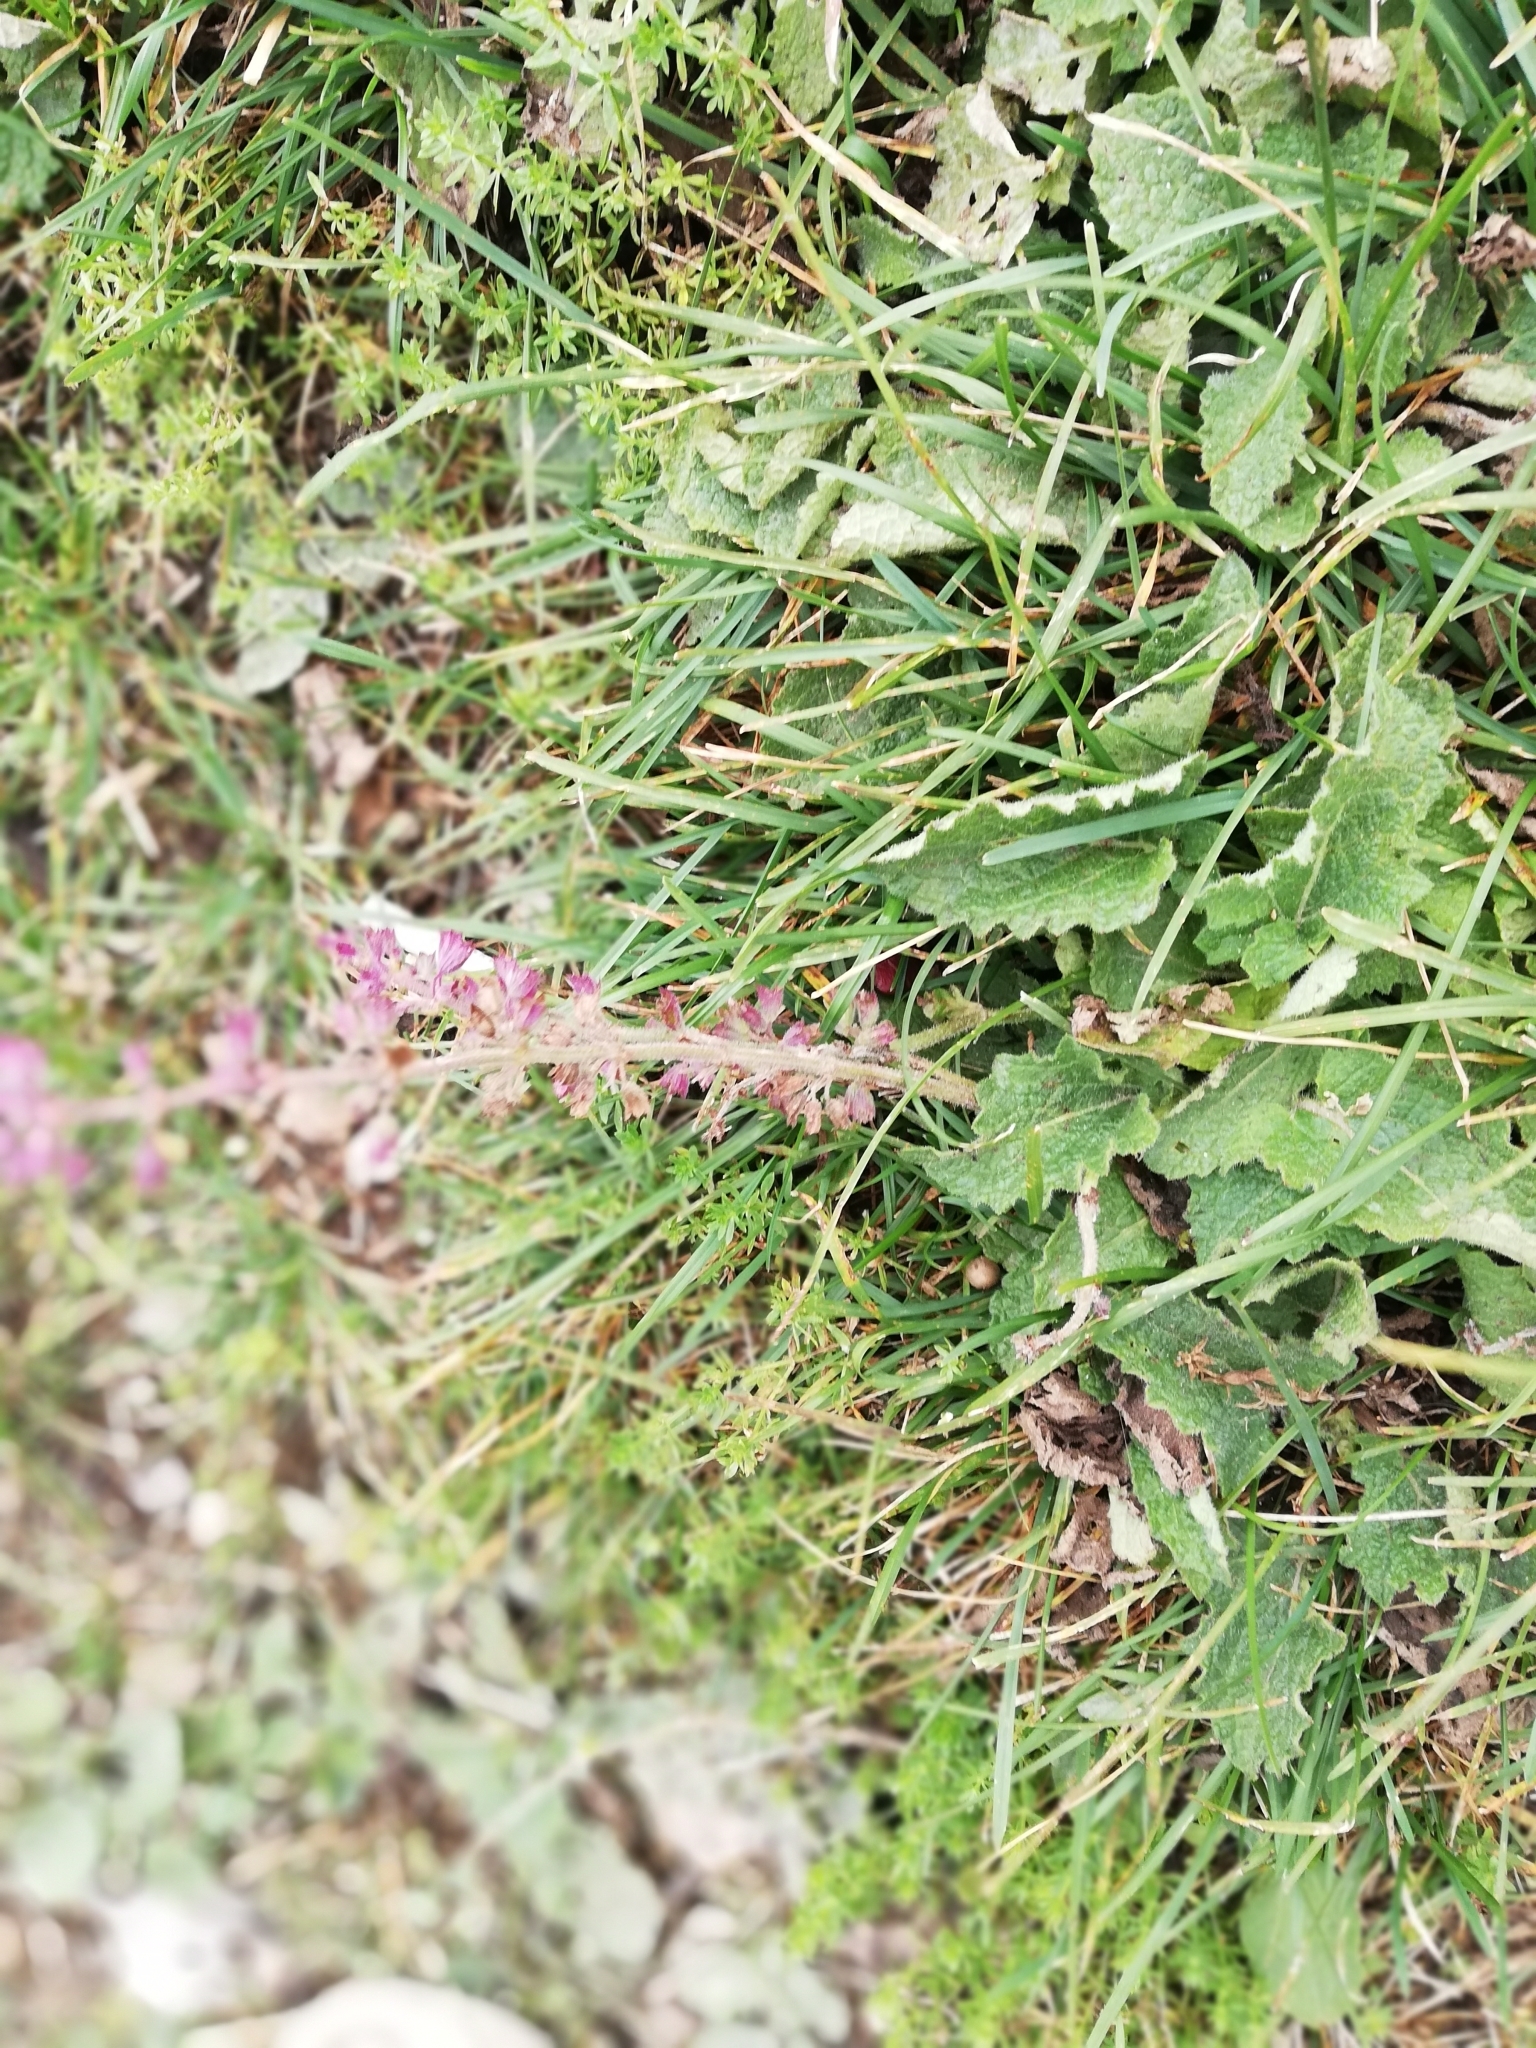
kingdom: Plantae
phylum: Tracheophyta
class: Magnoliopsida
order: Lamiales
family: Lamiaceae
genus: Salvia
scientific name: Salvia verticillata
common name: Whorled clary
